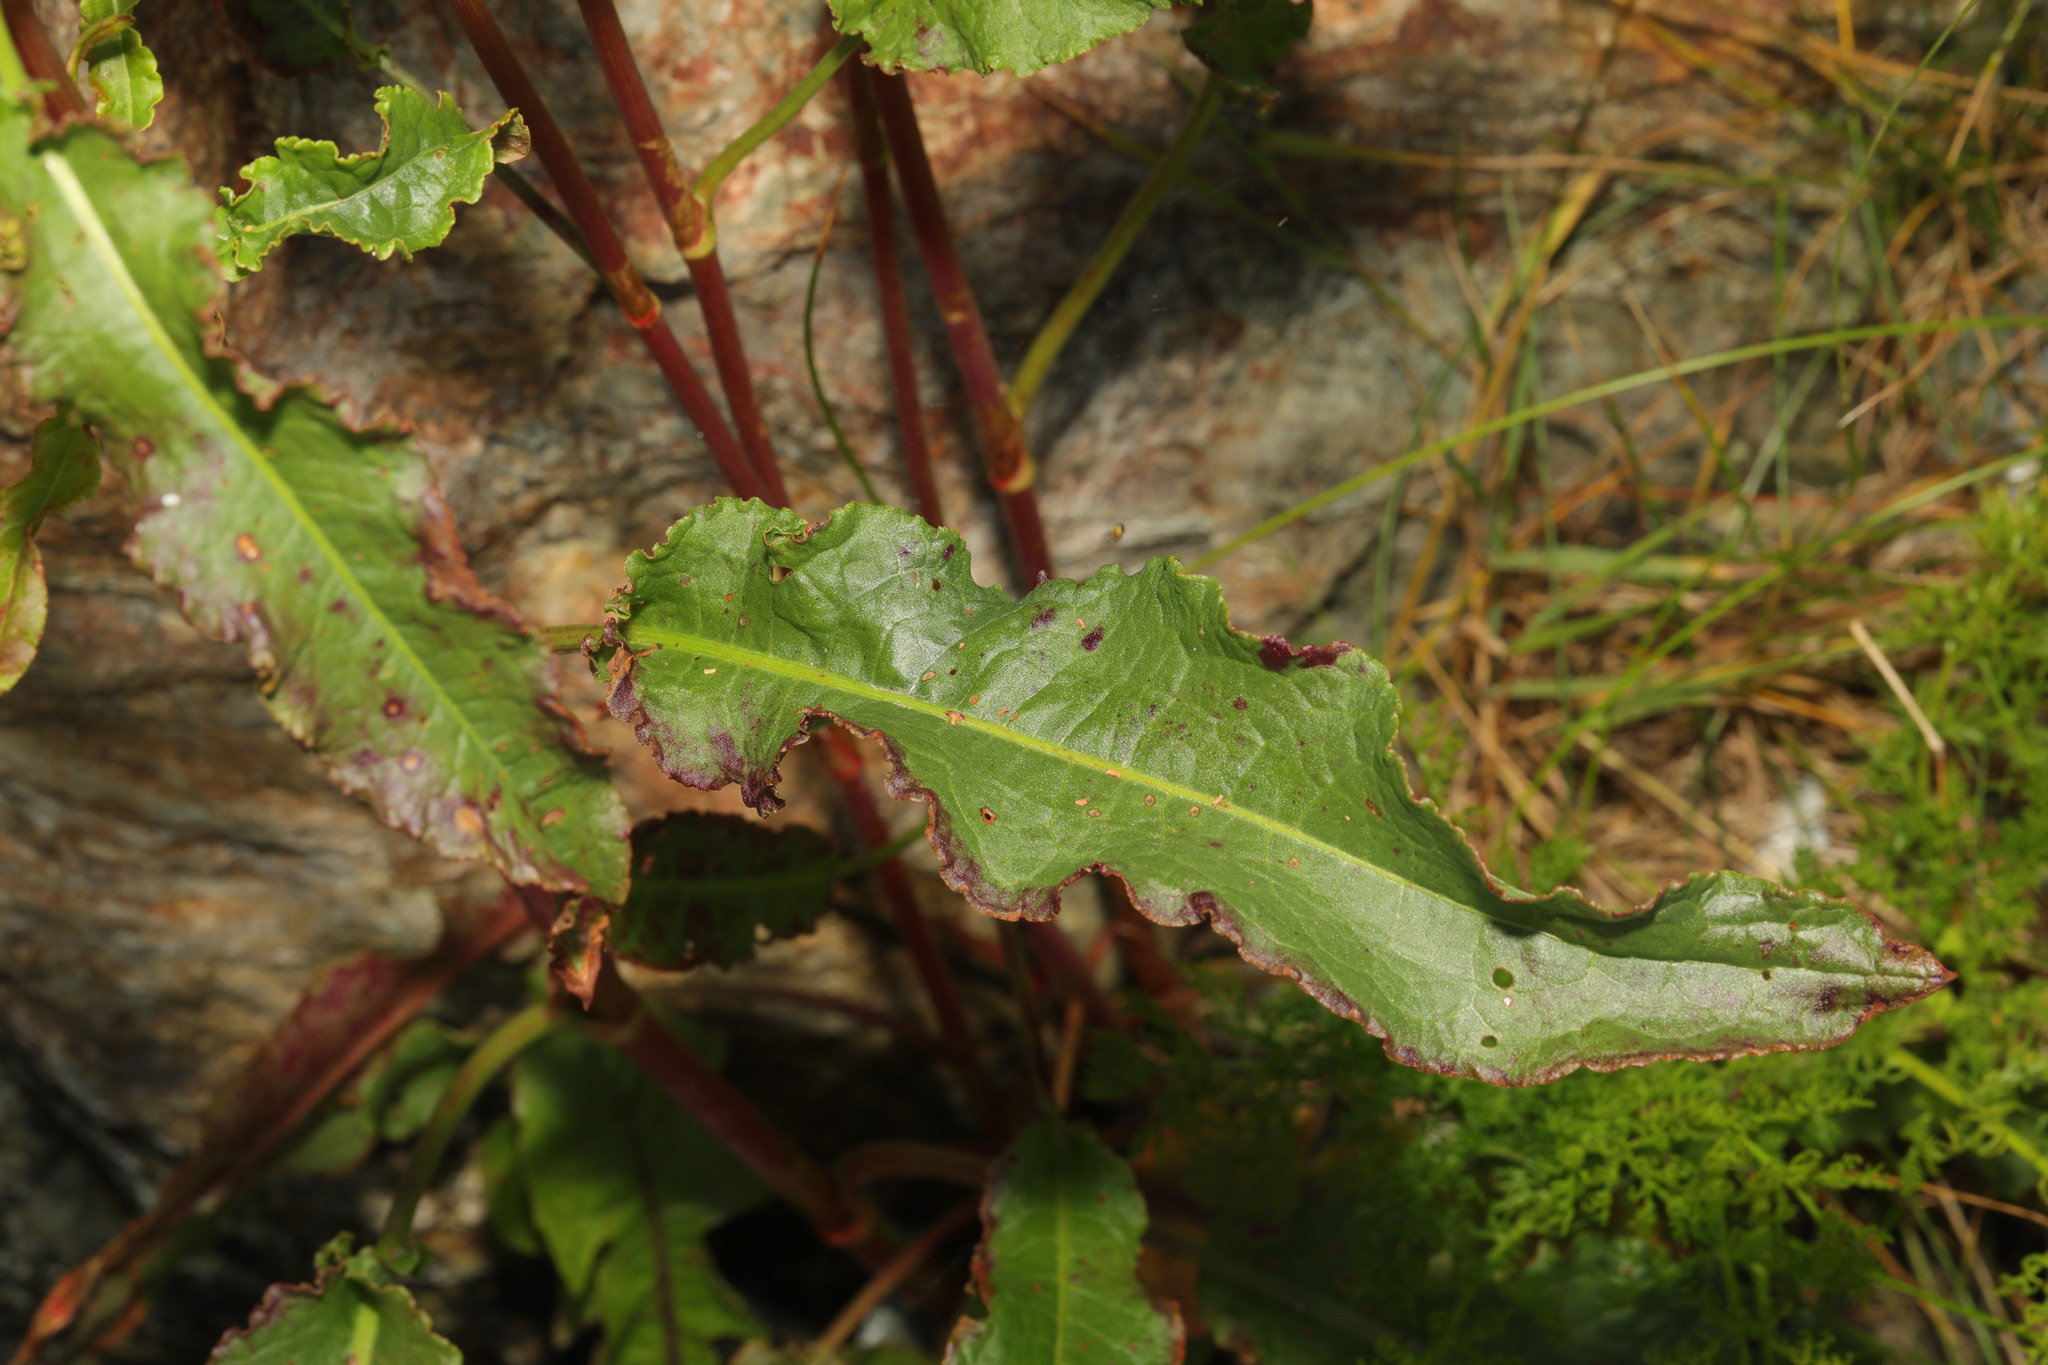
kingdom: Plantae
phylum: Tracheophyta
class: Magnoliopsida
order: Caryophyllales
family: Polygonaceae
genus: Rumex
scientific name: Rumex crispus
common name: Curled dock
